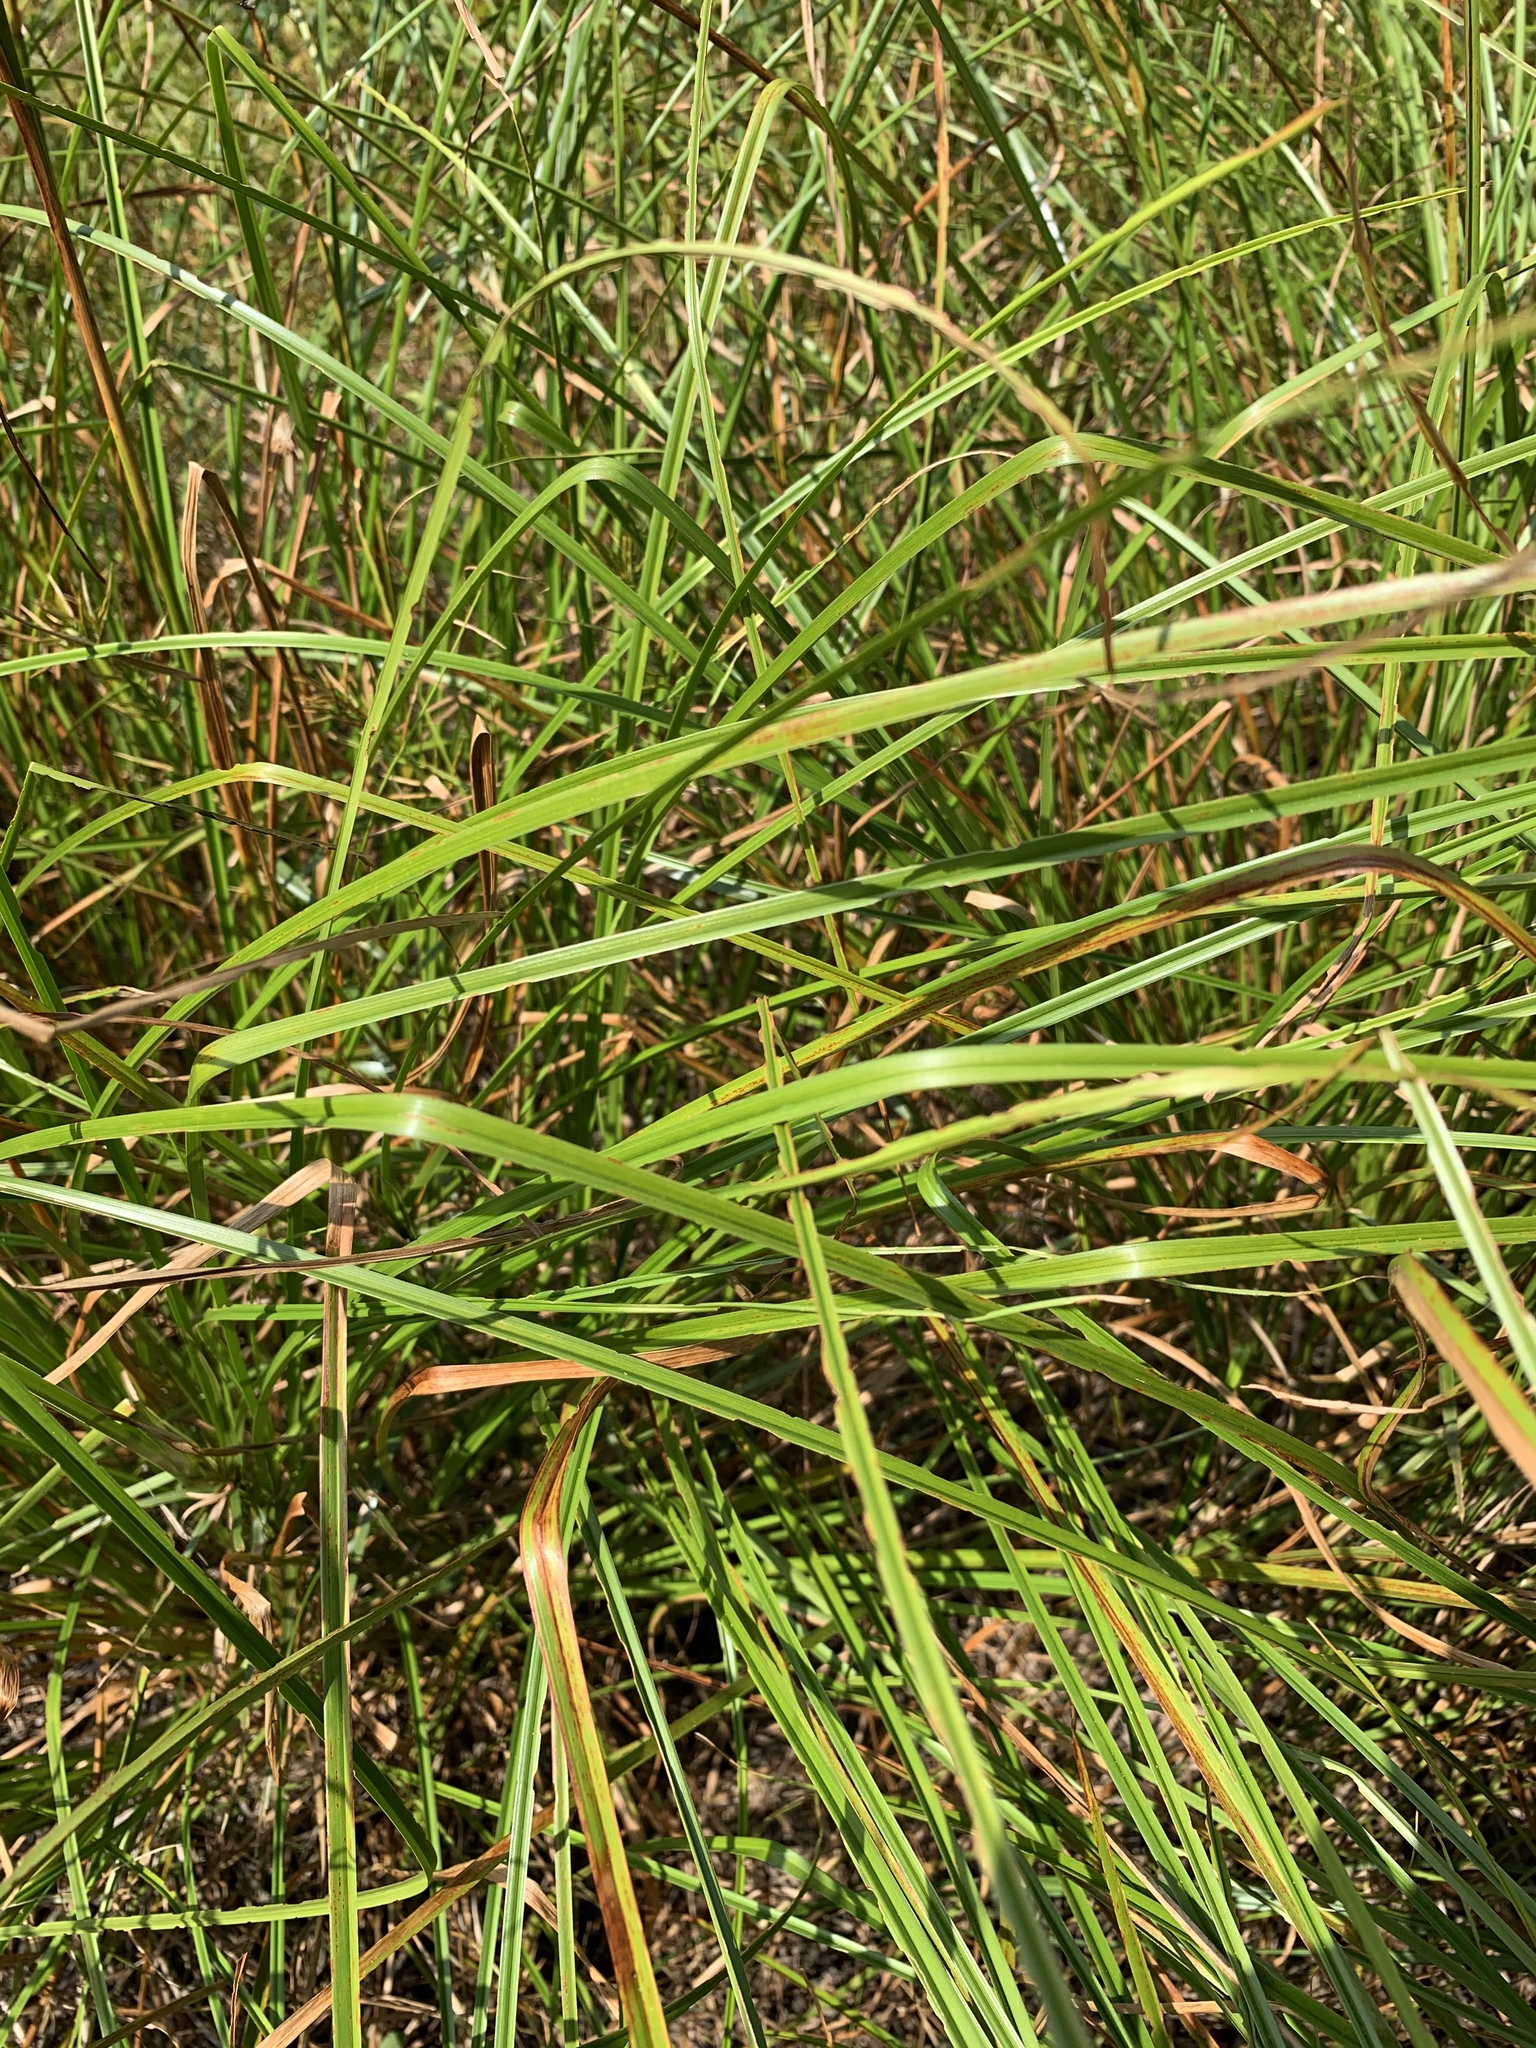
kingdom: Plantae
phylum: Tracheophyta
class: Liliopsida
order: Poales
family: Cyperaceae
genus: Scirpus
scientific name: Scirpus cyperinus
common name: Black-sheathed bulrush
